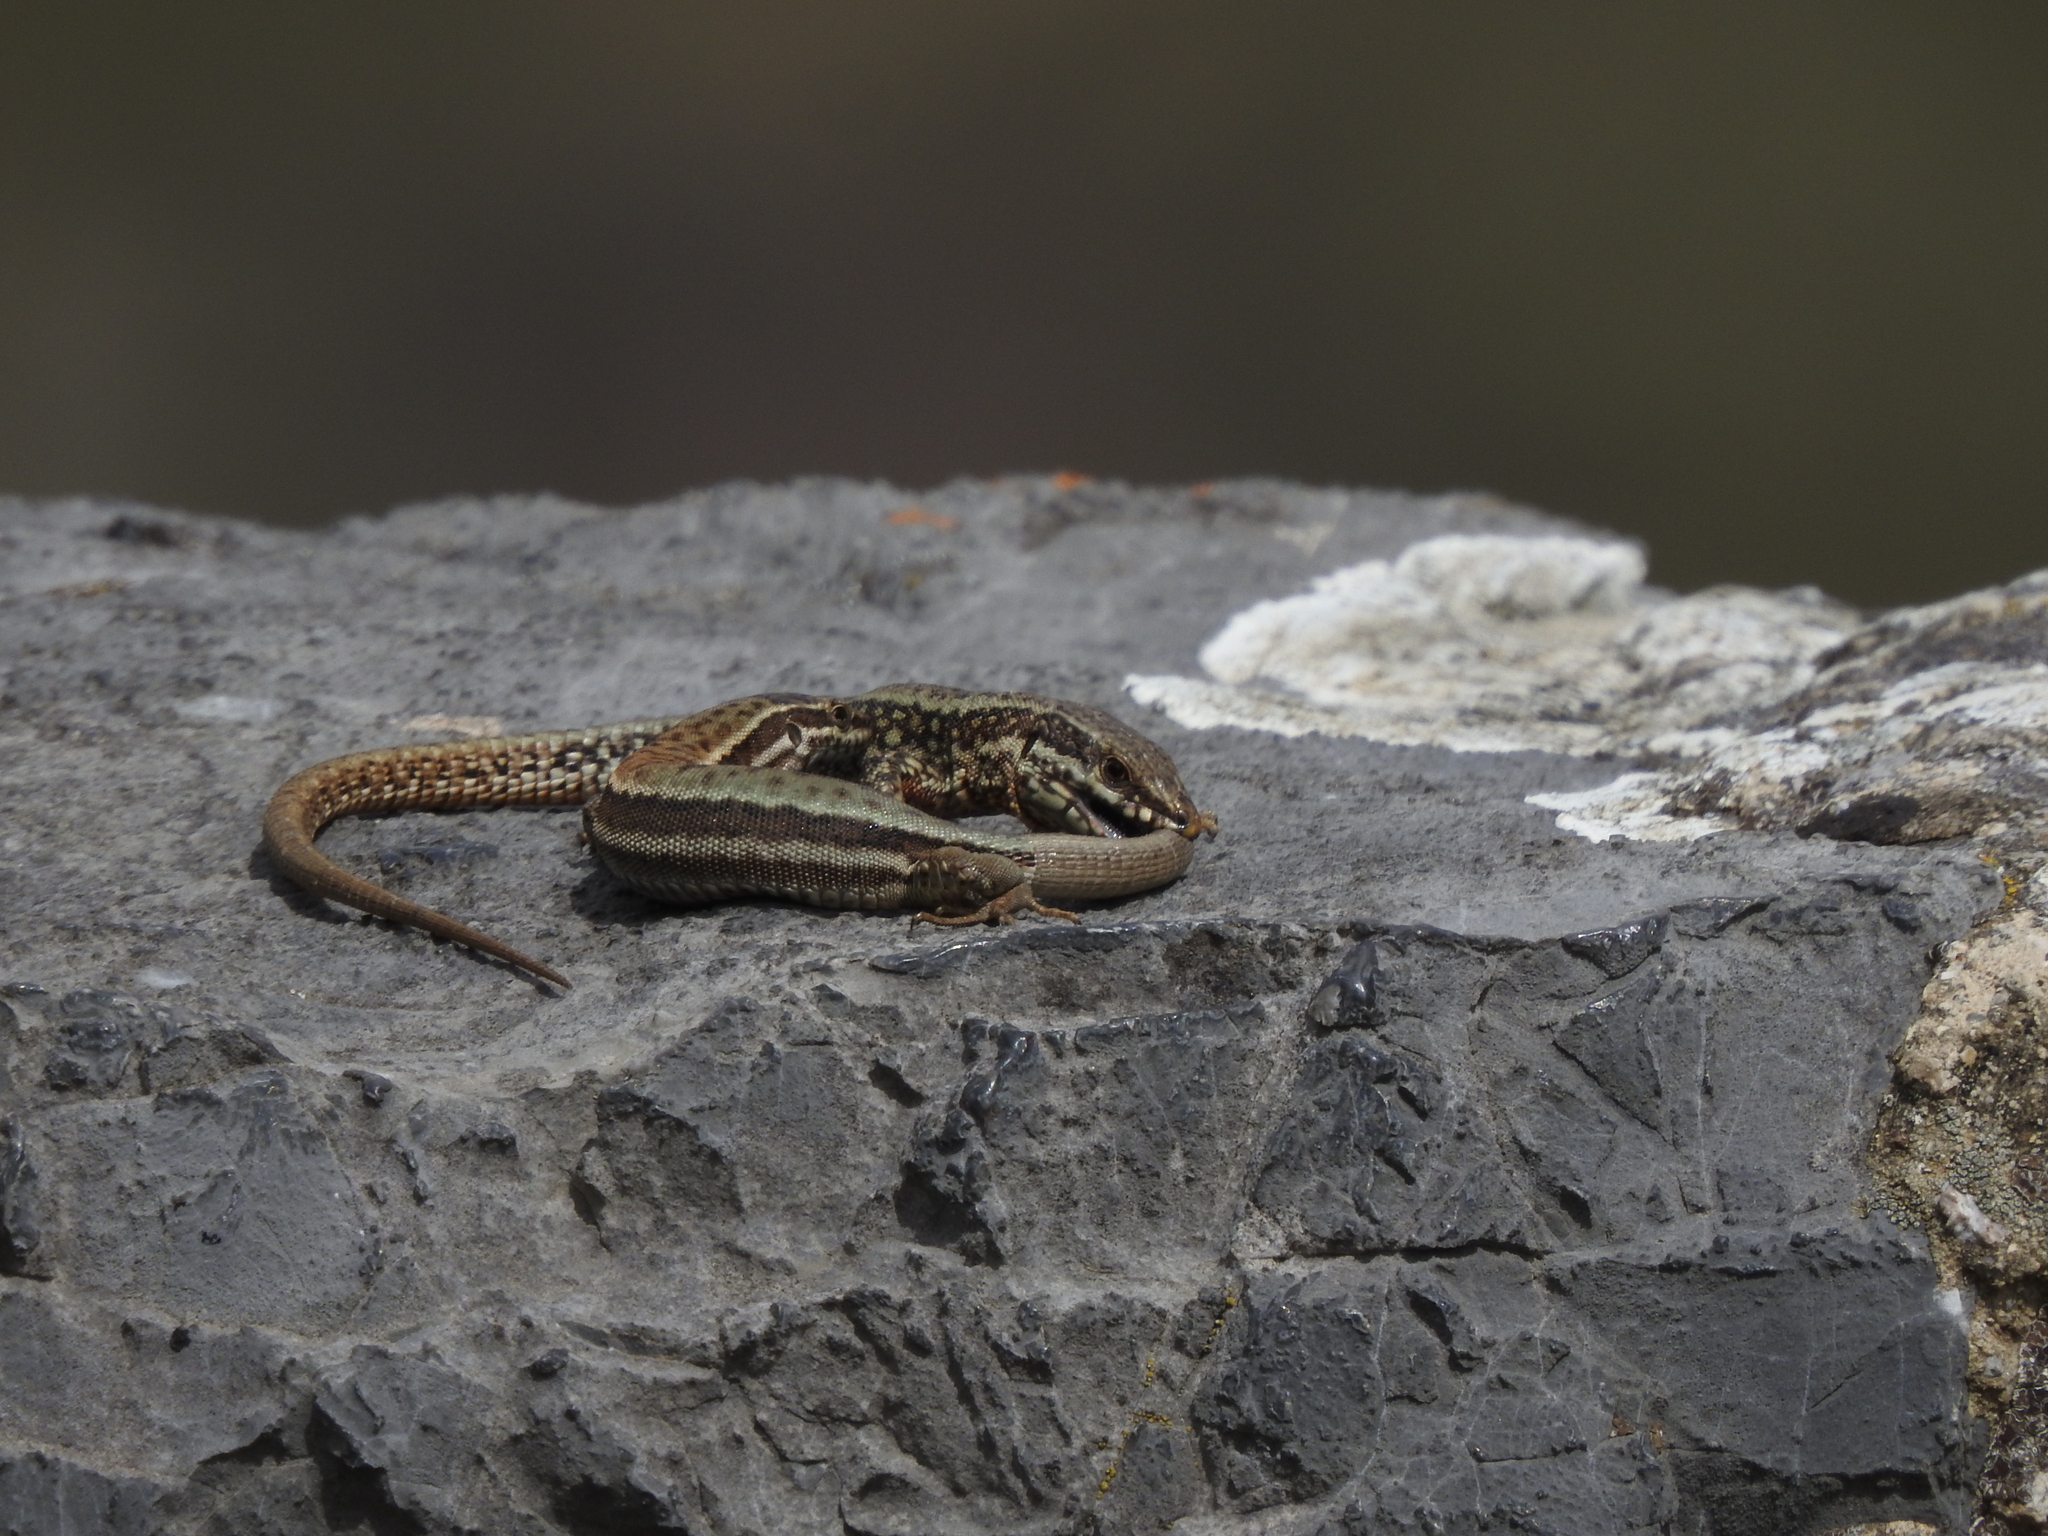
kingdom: Animalia
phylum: Chordata
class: Squamata
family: Lacertidae
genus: Podarcis
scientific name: Podarcis muralis
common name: Common wall lizard
